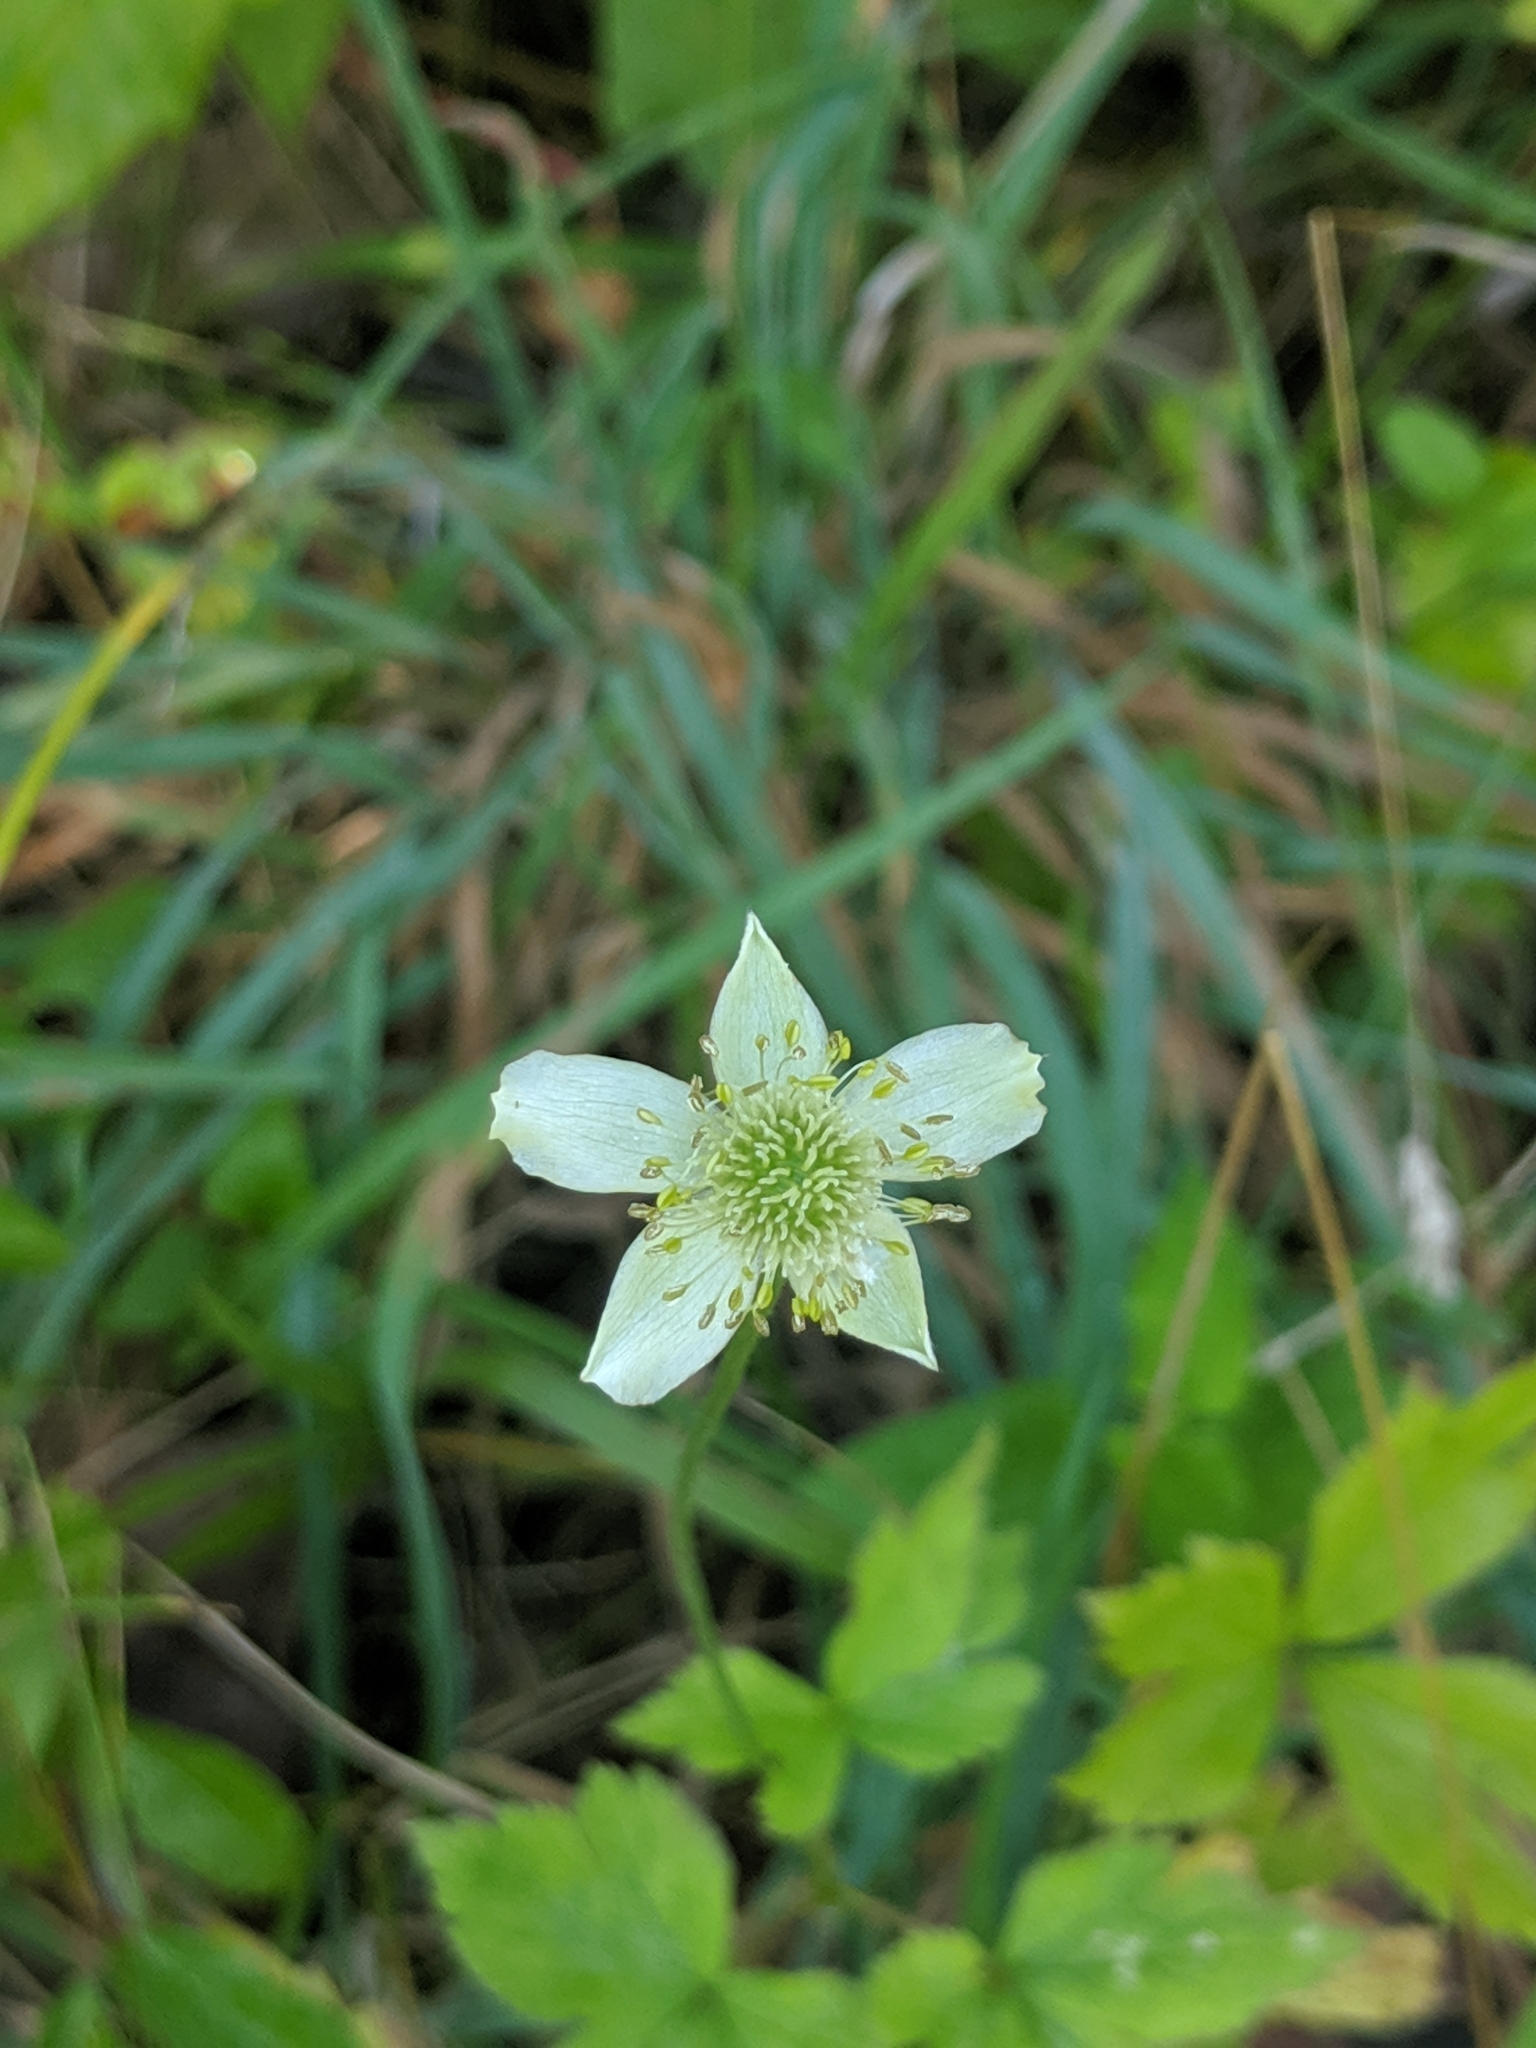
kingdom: Plantae
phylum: Tracheophyta
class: Magnoliopsida
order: Ranunculales
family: Ranunculaceae
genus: Anemone
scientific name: Anemone virginiana
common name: Tall anemone
